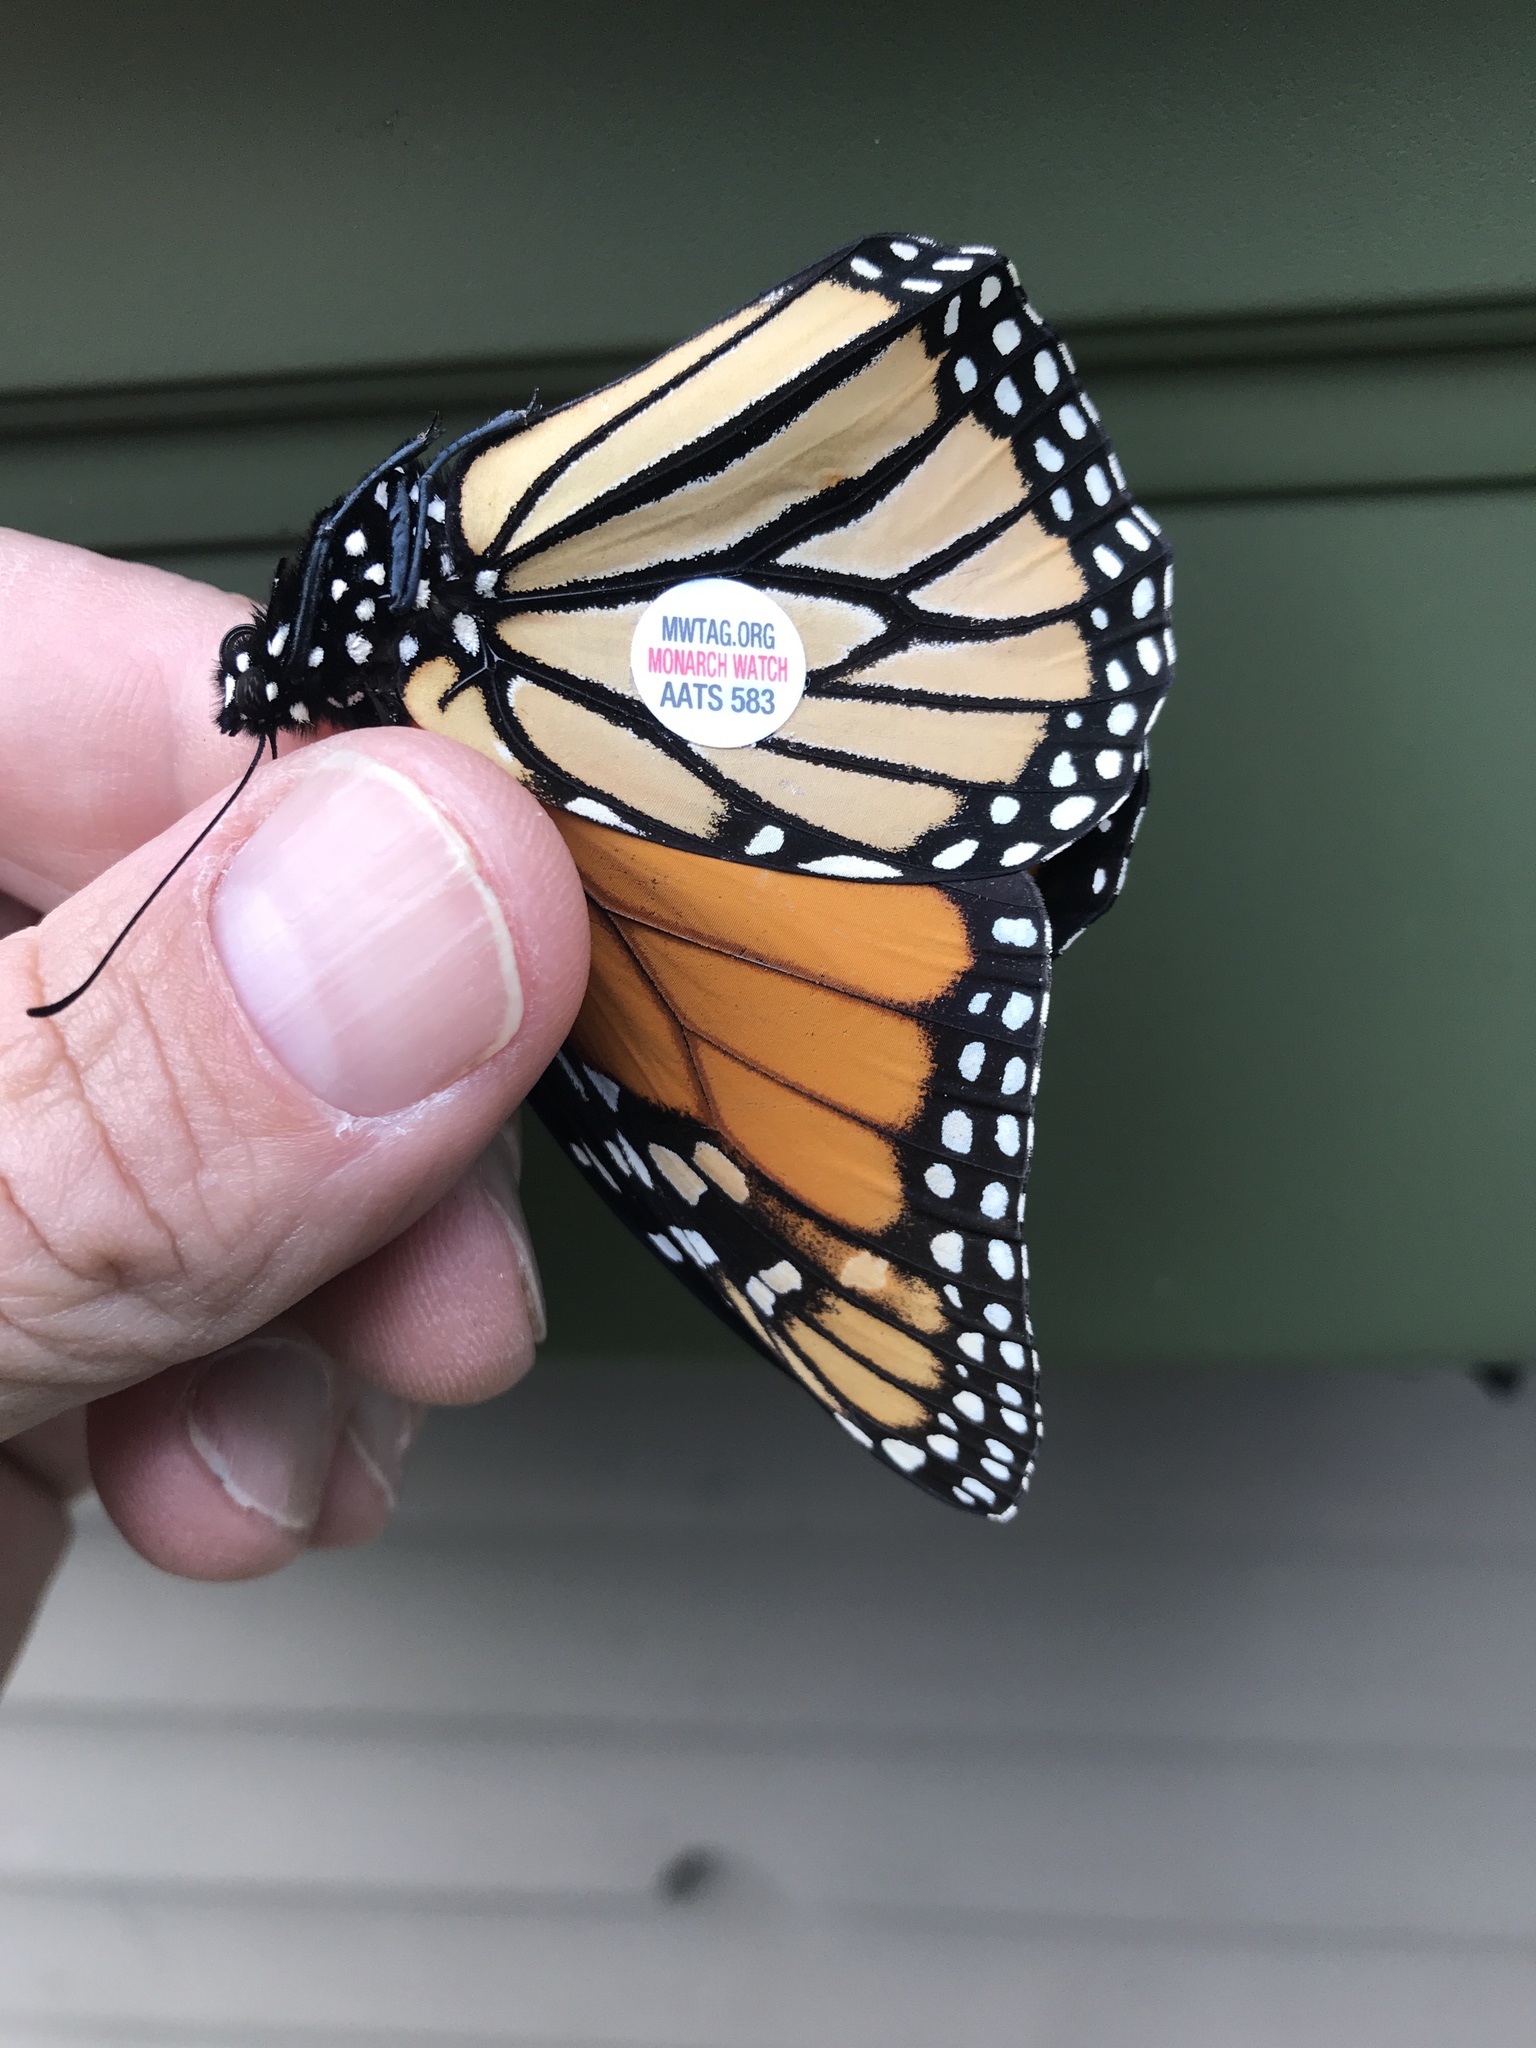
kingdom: Animalia
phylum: Arthropoda
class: Insecta
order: Lepidoptera
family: Nymphalidae
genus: Danaus
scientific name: Danaus plexippus
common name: Monarch
